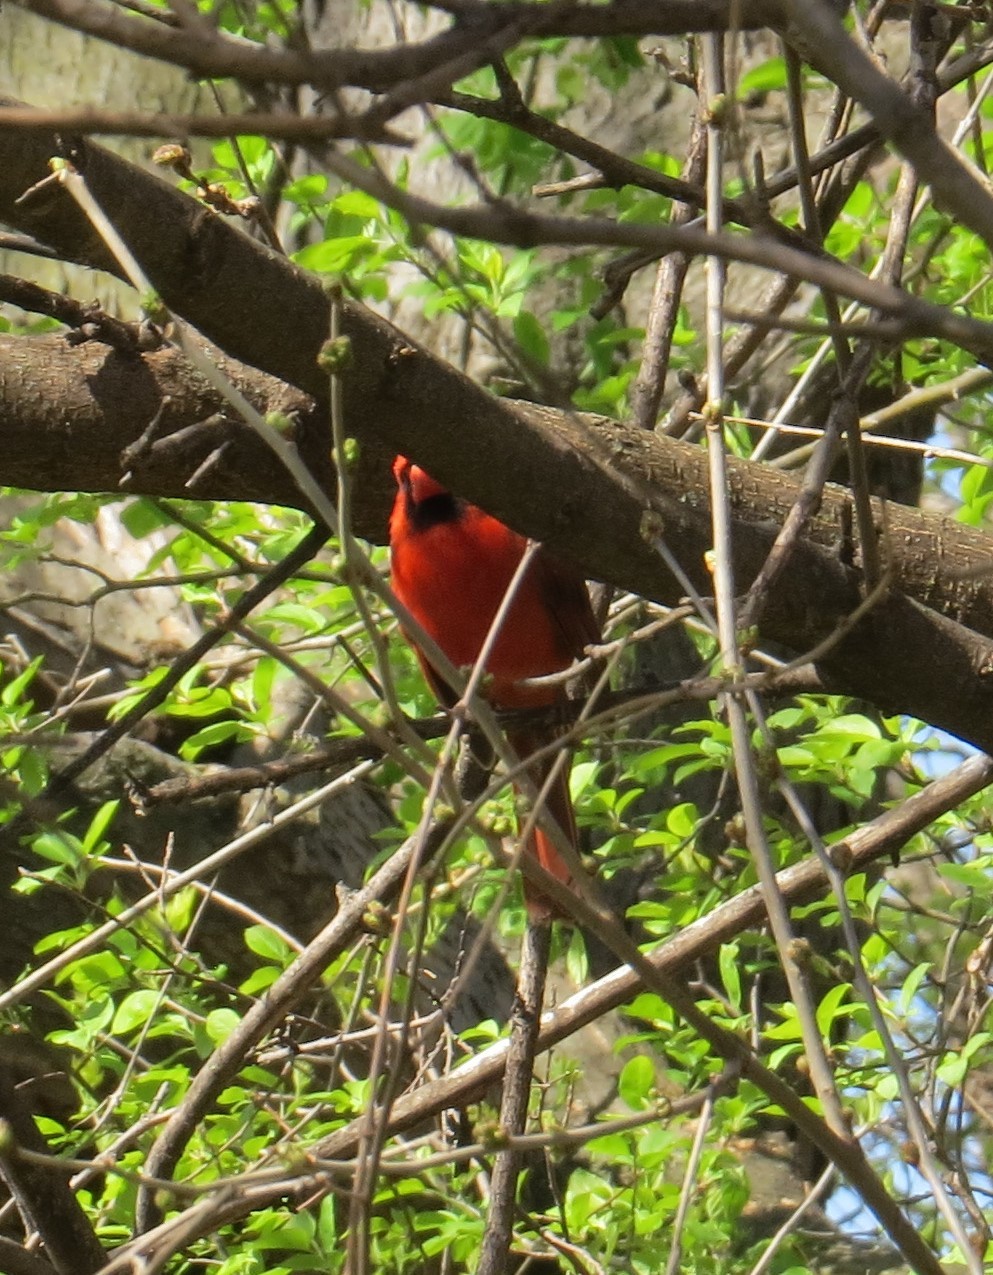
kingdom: Animalia
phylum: Chordata
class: Aves
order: Passeriformes
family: Cardinalidae
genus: Cardinalis
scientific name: Cardinalis cardinalis
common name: Northern cardinal
